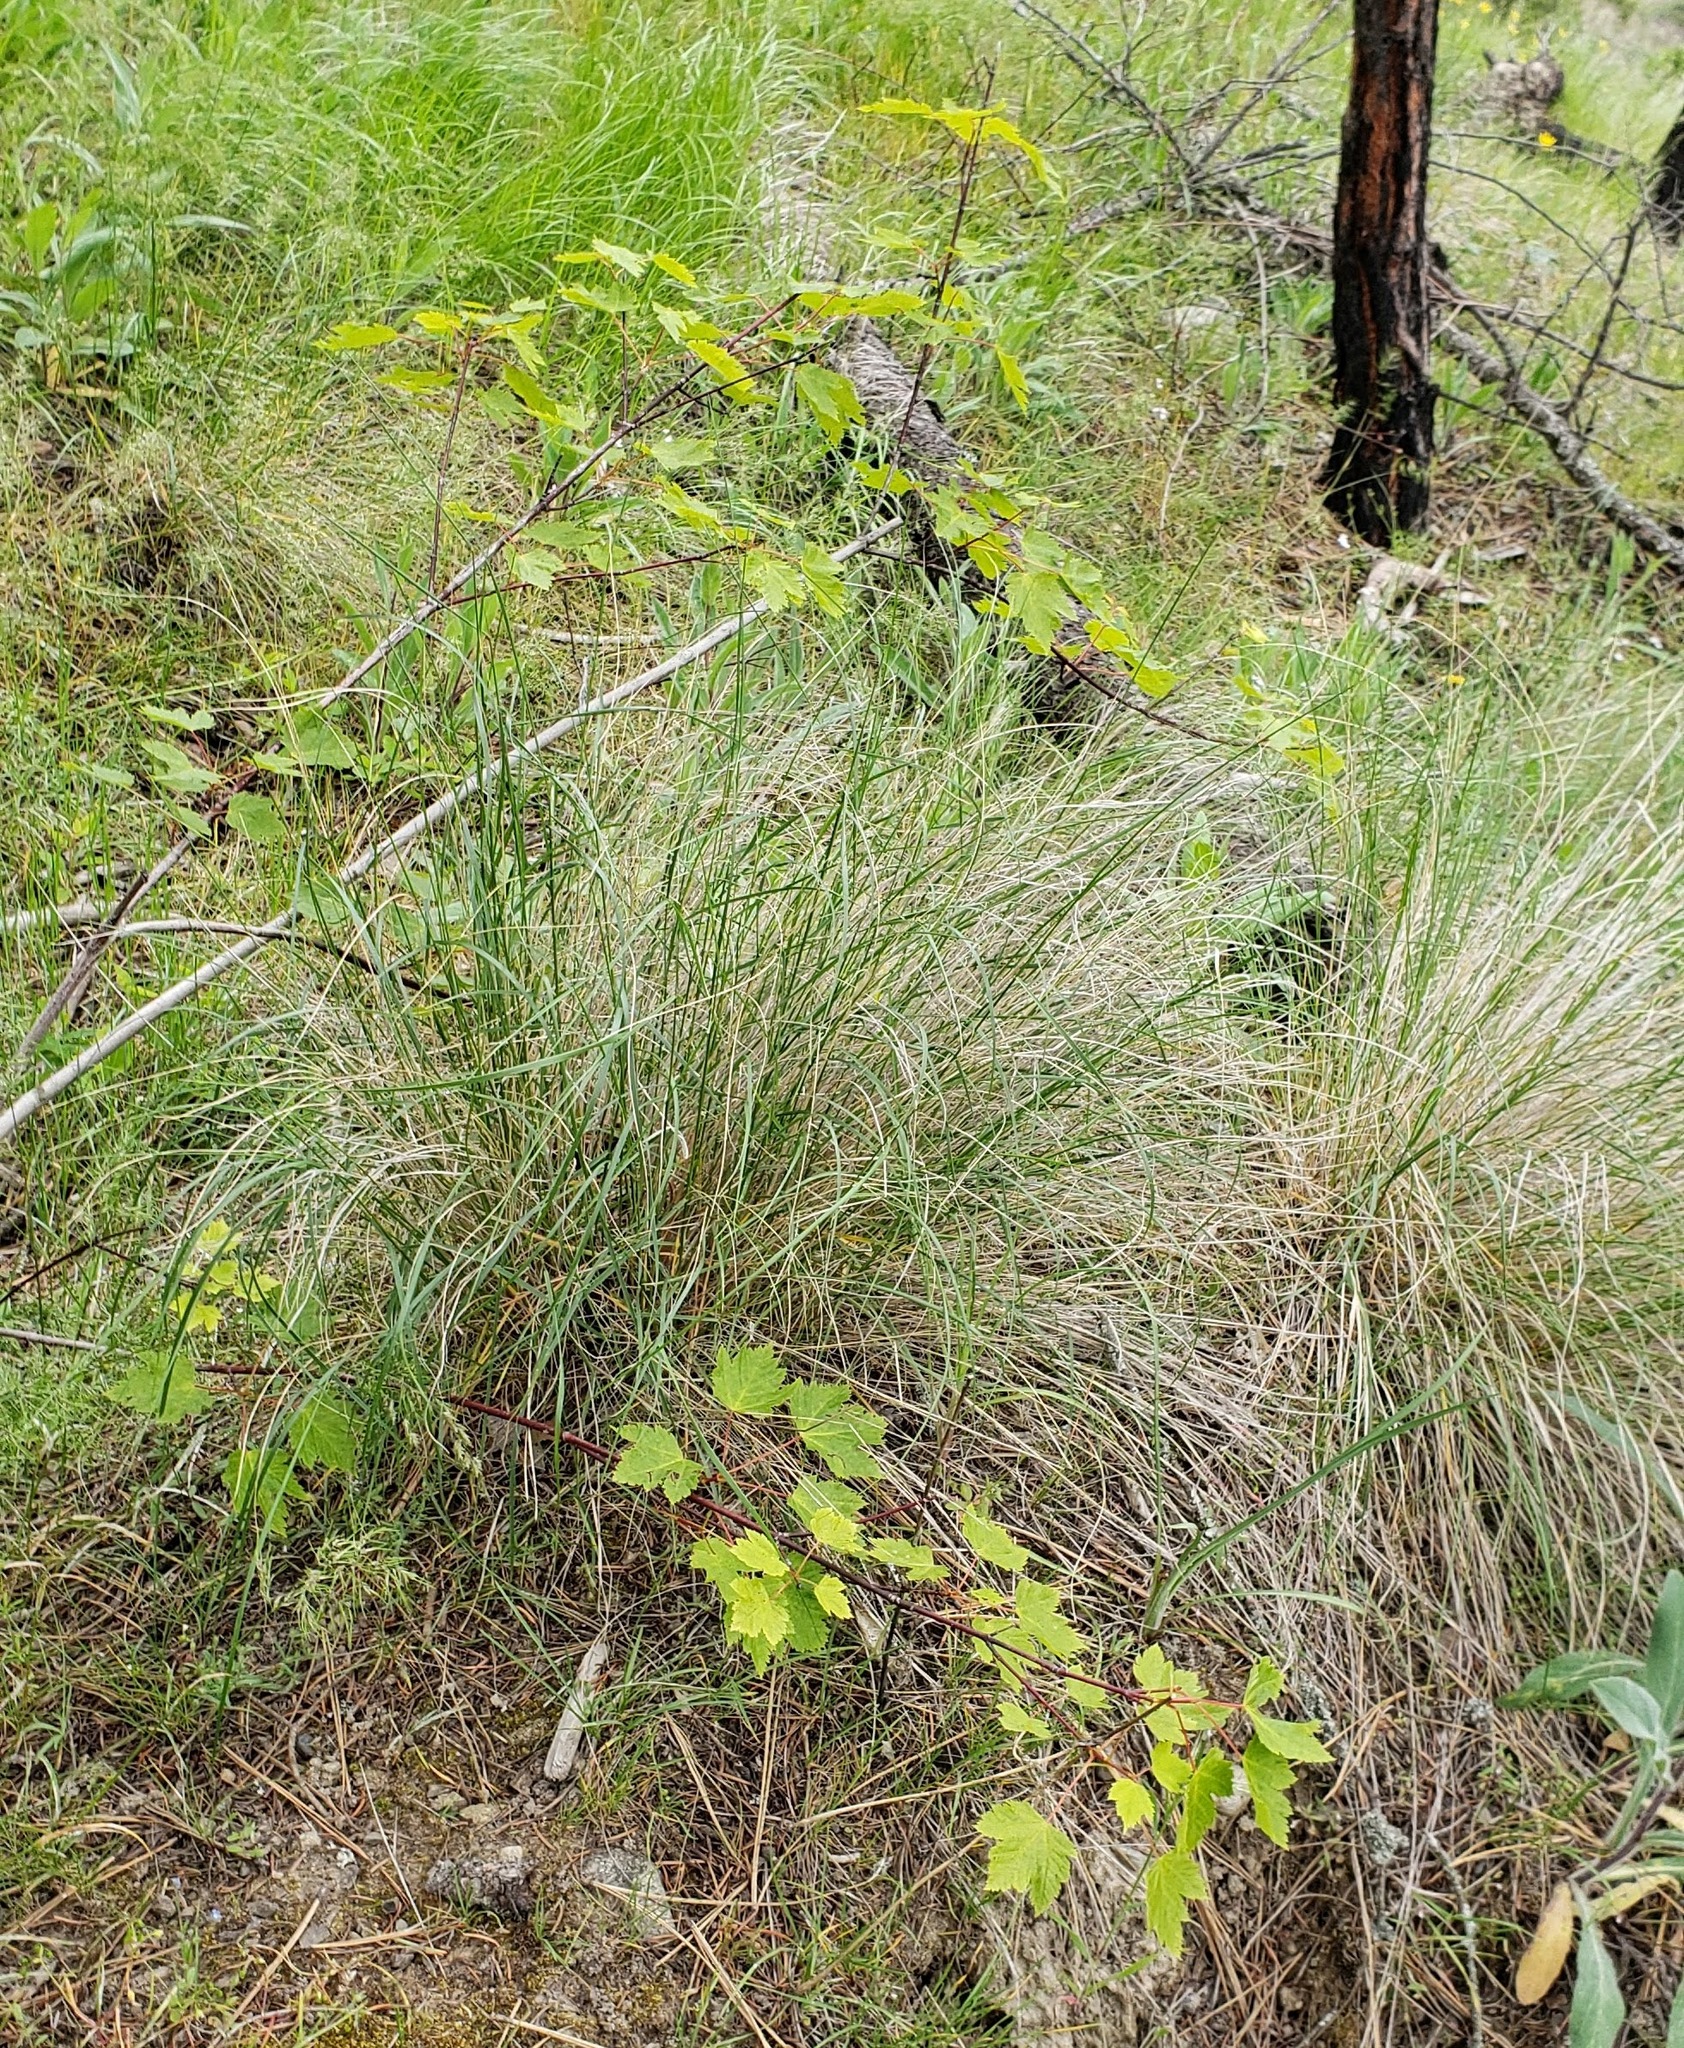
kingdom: Plantae
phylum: Tracheophyta
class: Magnoliopsida
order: Sapindales
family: Sapindaceae
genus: Acer
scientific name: Acer glabrum
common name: Rocky mountain maple
